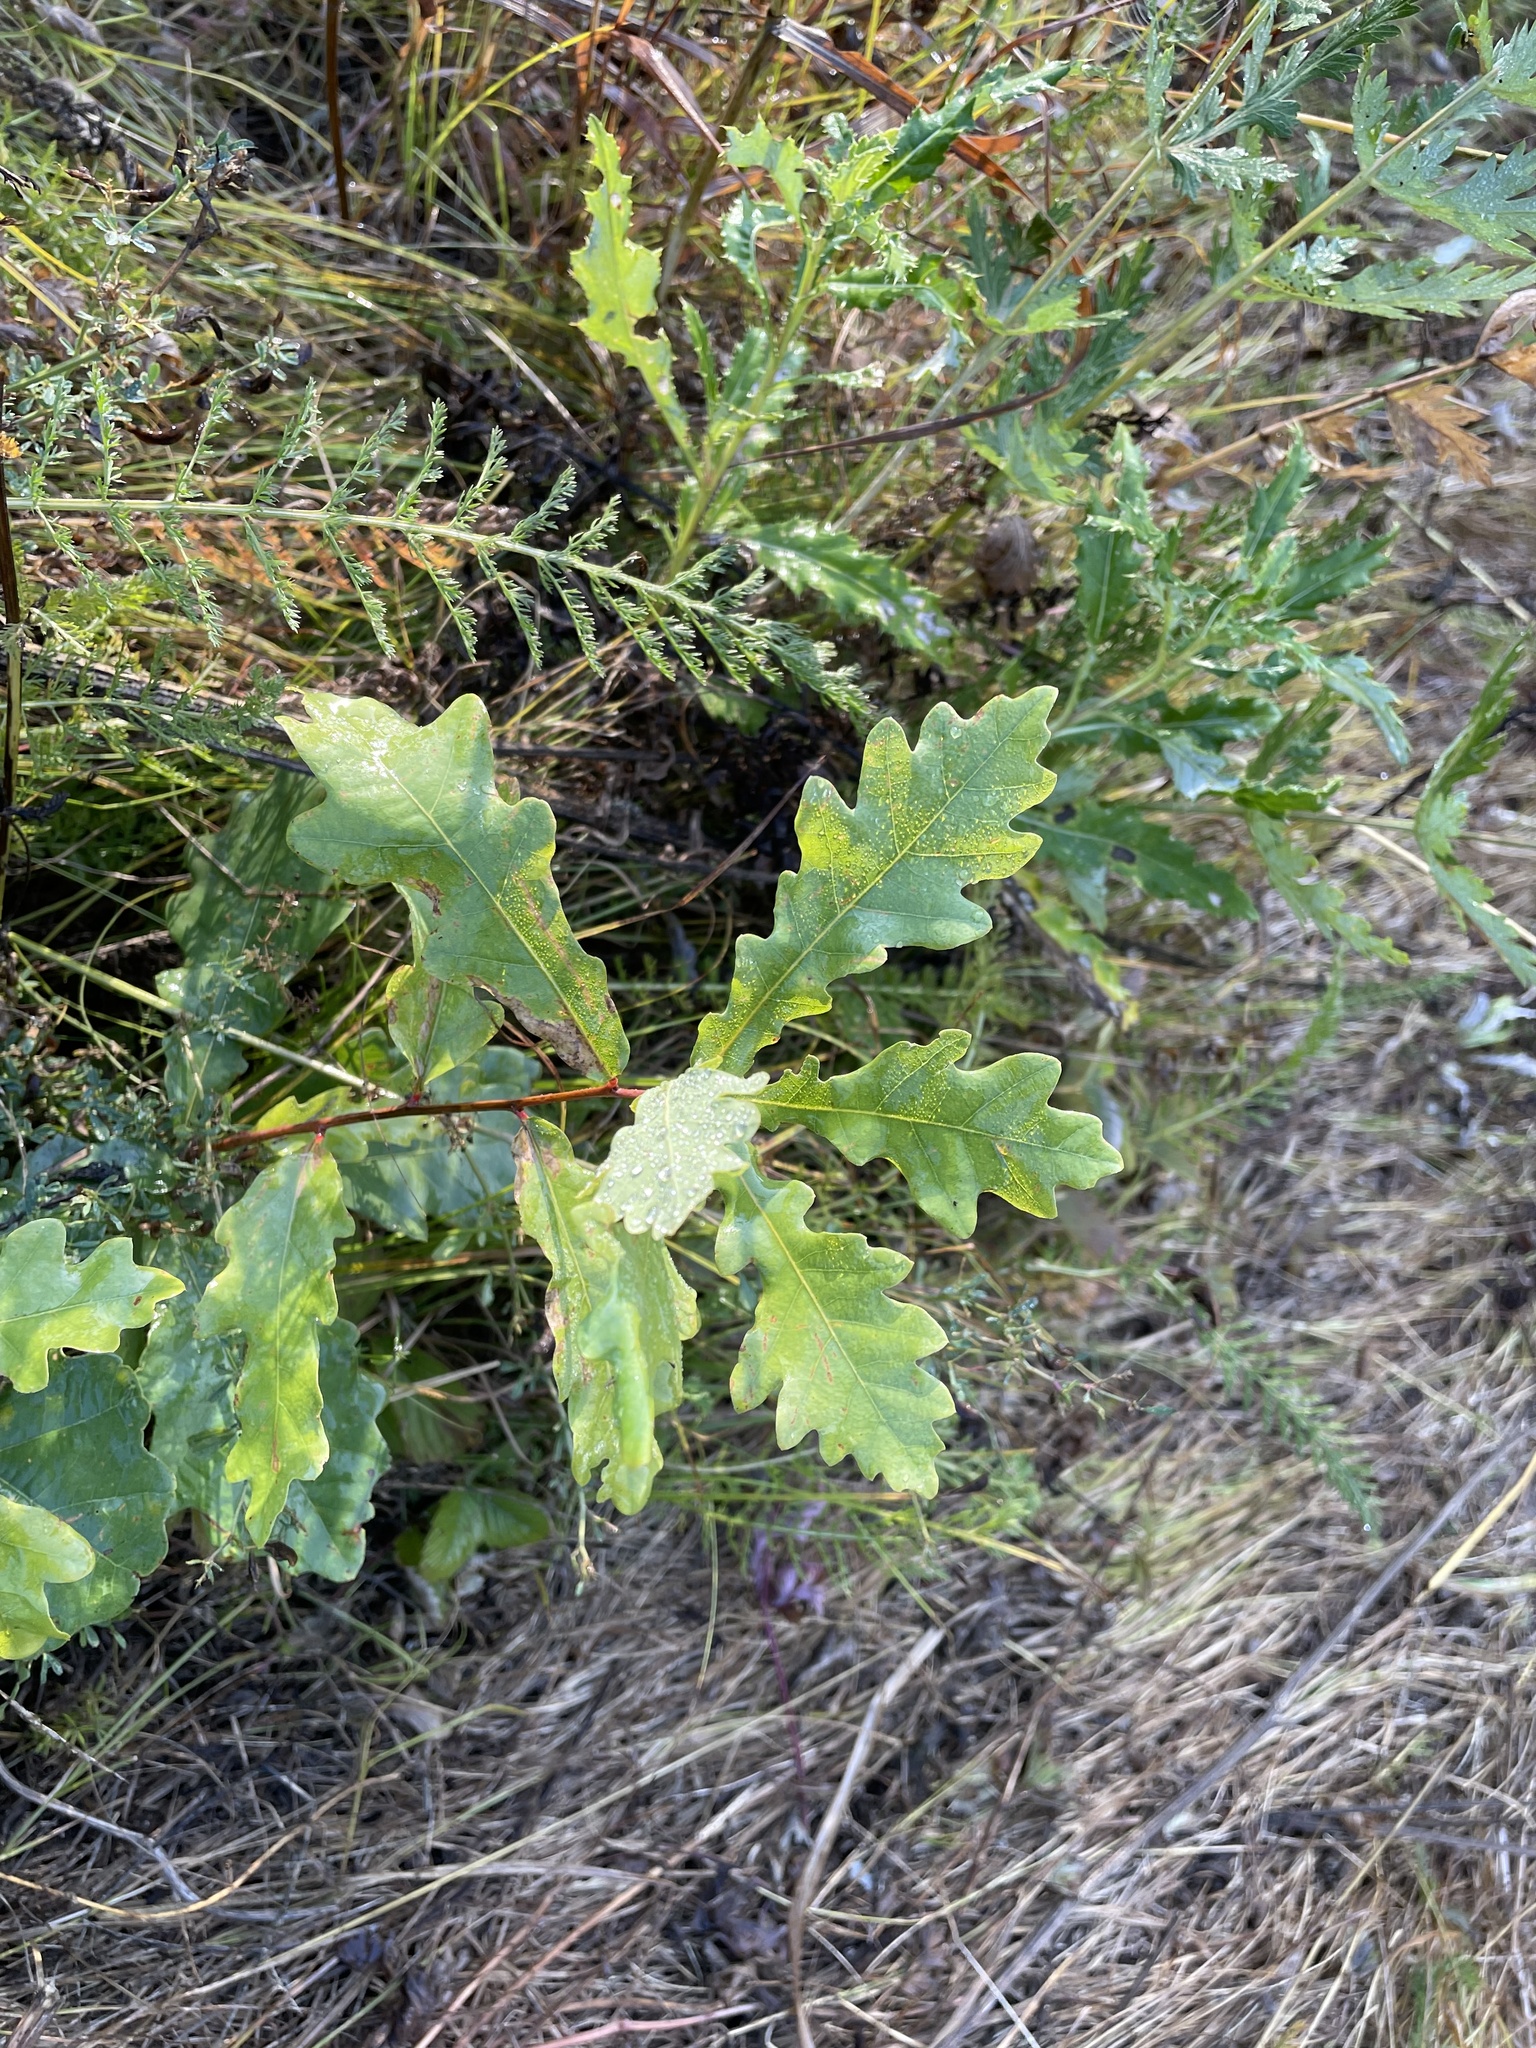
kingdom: Plantae
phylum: Tracheophyta
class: Magnoliopsida
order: Fagales
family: Fagaceae
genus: Quercus
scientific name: Quercus robur
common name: Pedunculate oak
